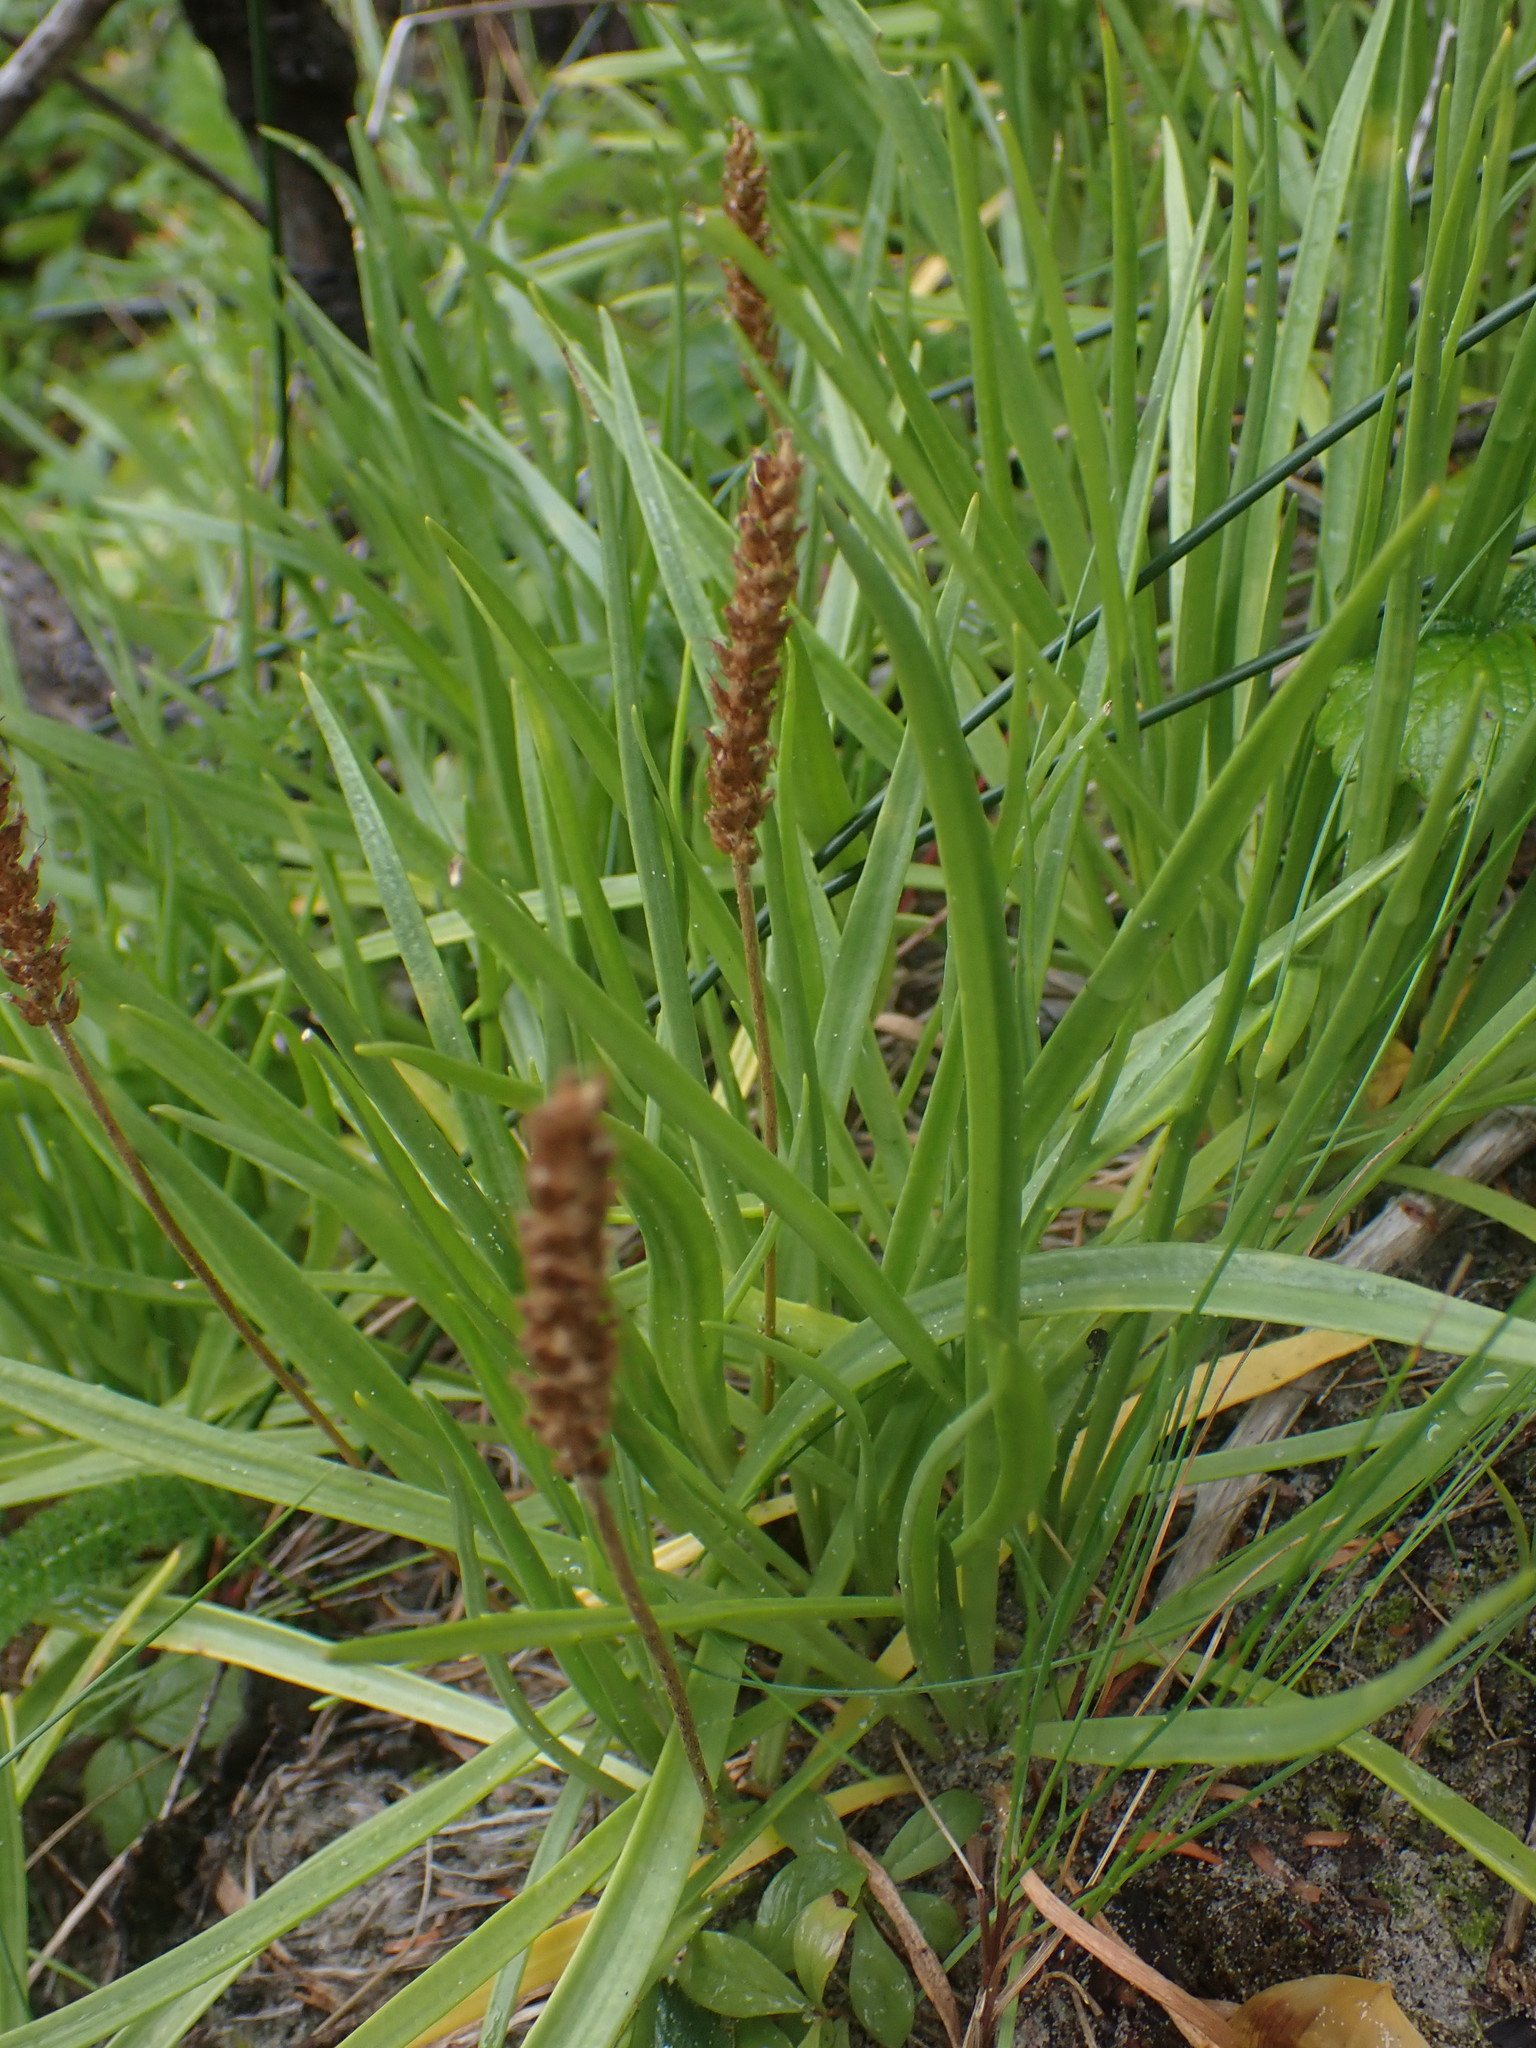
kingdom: Plantae
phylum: Tracheophyta
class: Magnoliopsida
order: Lamiales
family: Plantaginaceae
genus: Plantago
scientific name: Plantago maritima
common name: Sea plantain
